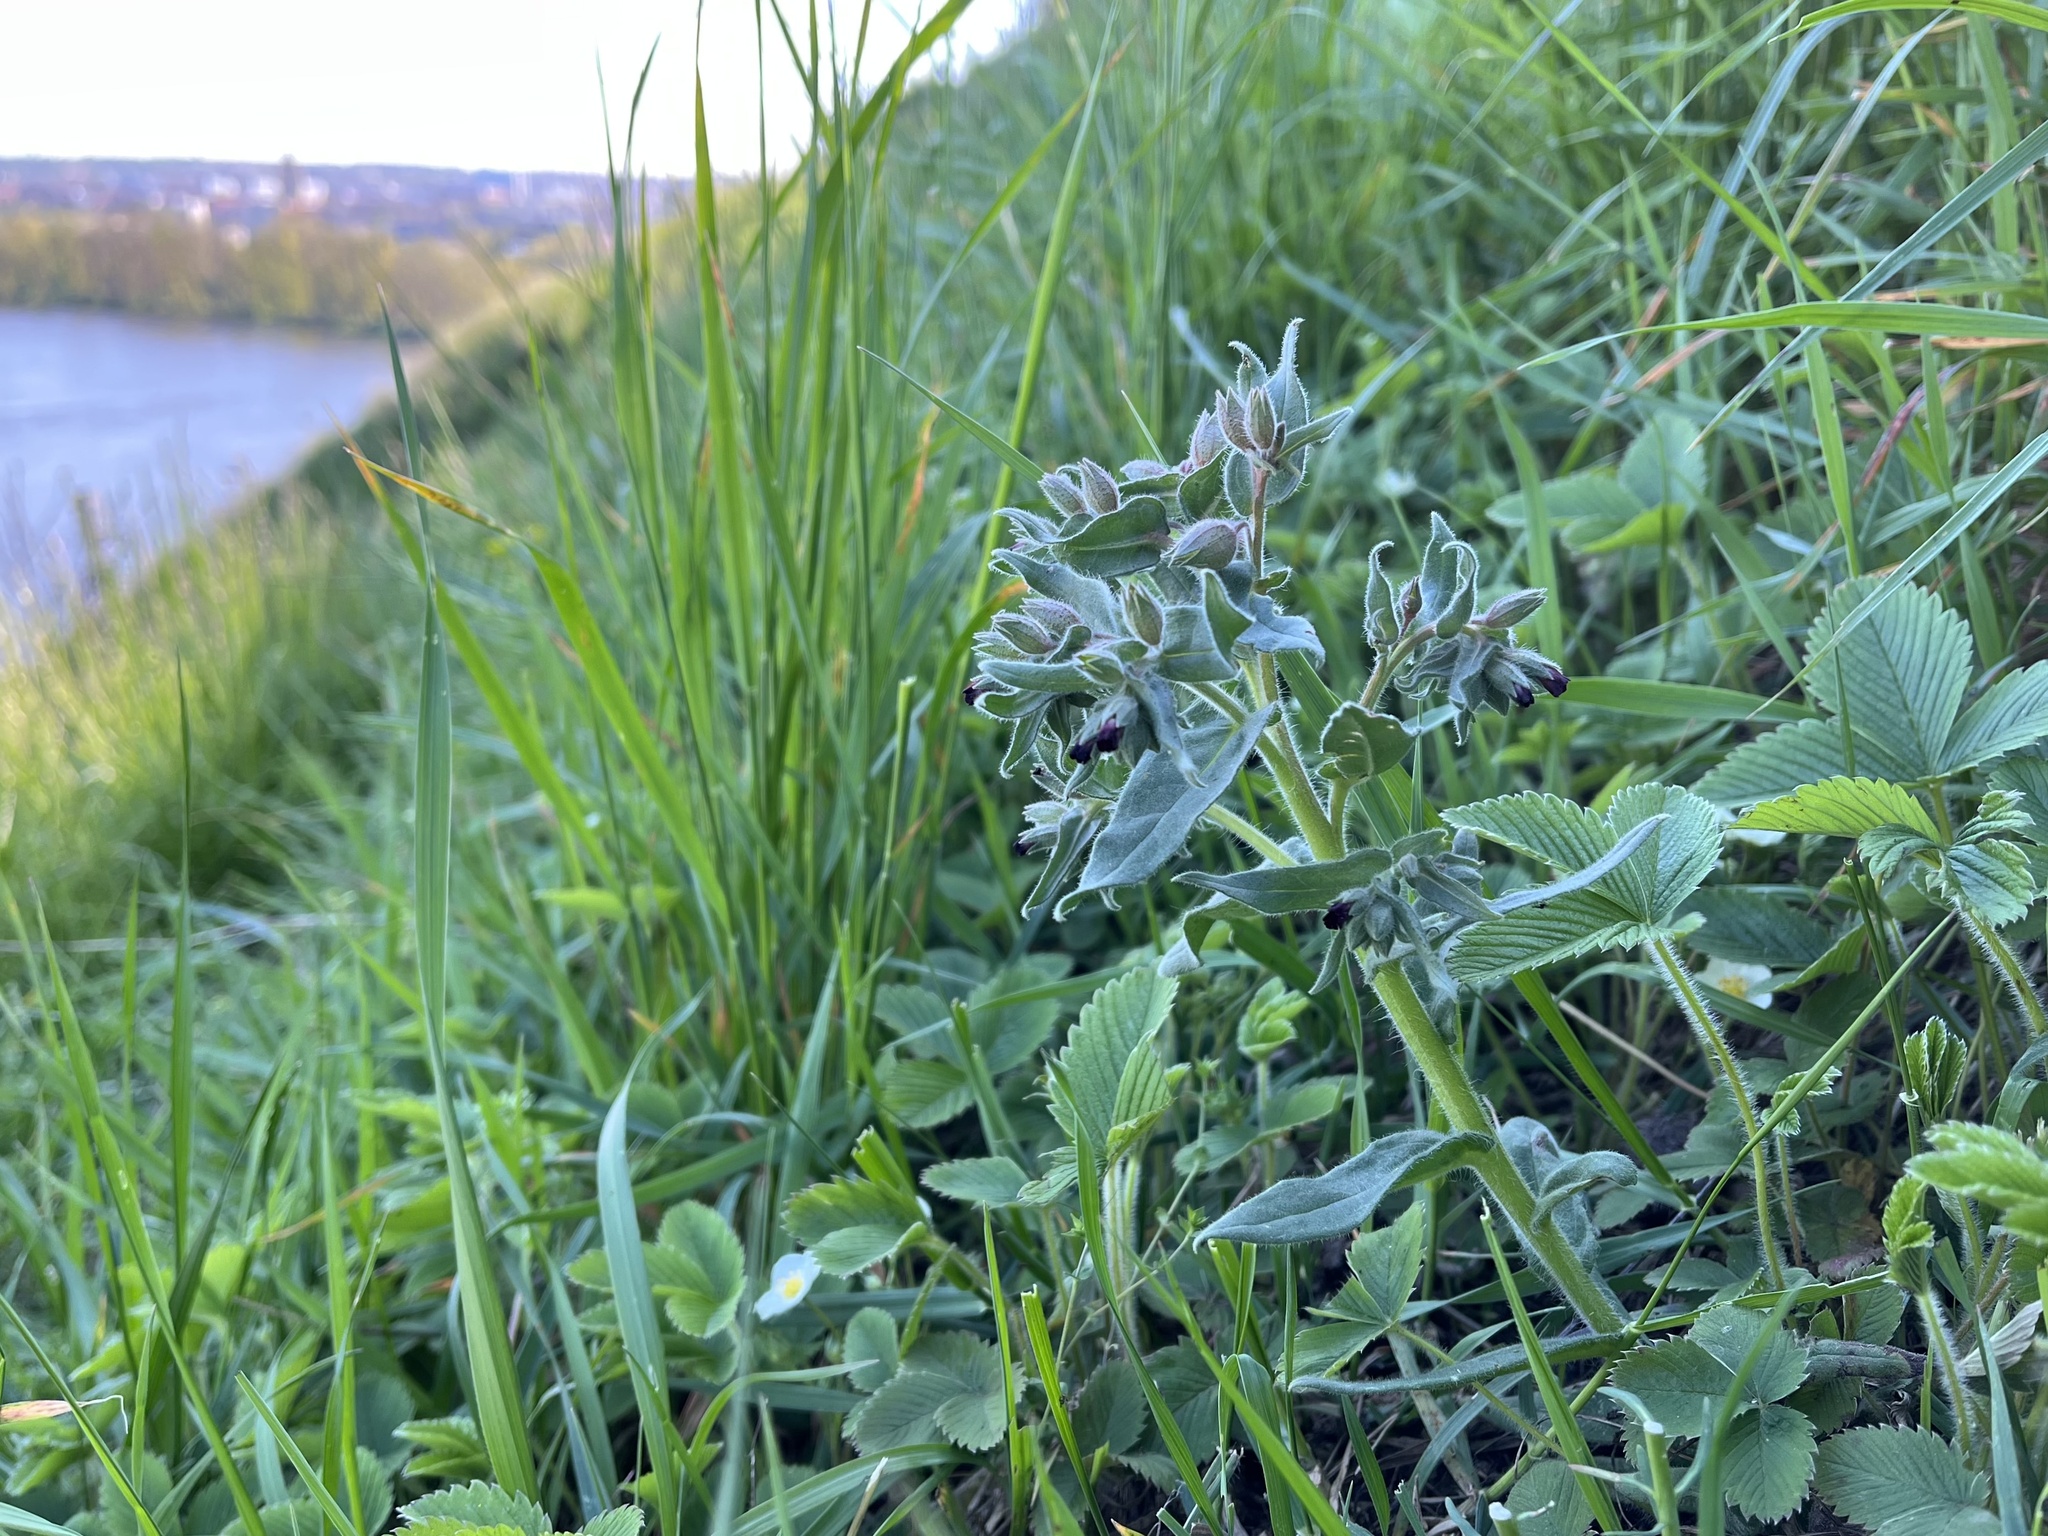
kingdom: Plantae
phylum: Tracheophyta
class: Magnoliopsida
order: Boraginales
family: Boraginaceae
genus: Nonea
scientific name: Nonea pulla
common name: Brown nonea
